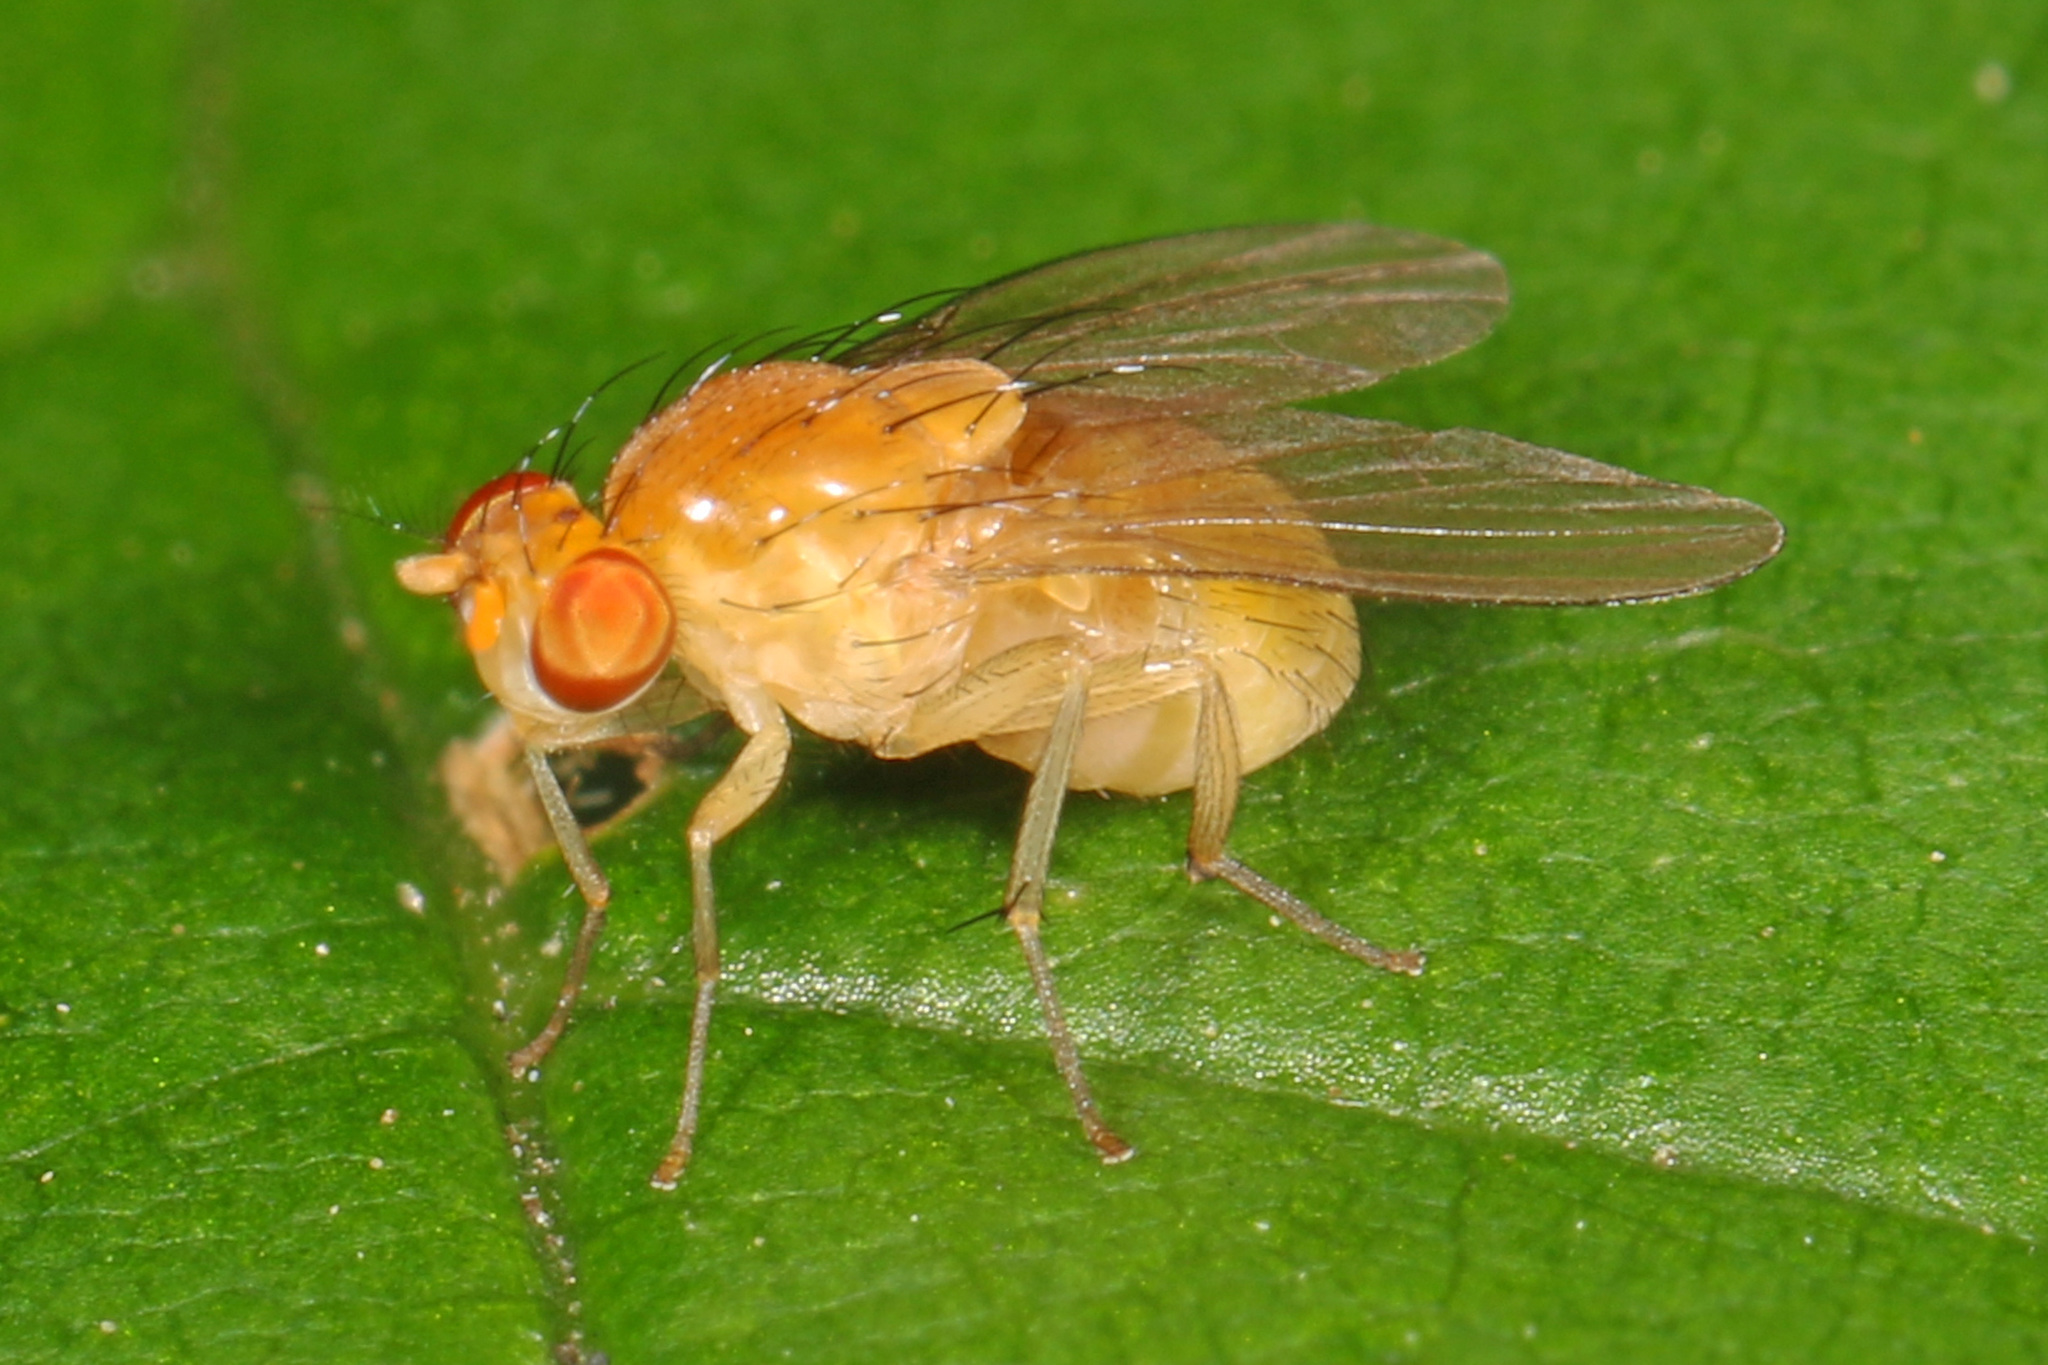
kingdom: Animalia
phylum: Arthropoda
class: Insecta
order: Diptera
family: Lauxaniidae
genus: Neogriphoneura
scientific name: Neogriphoneura sordida
